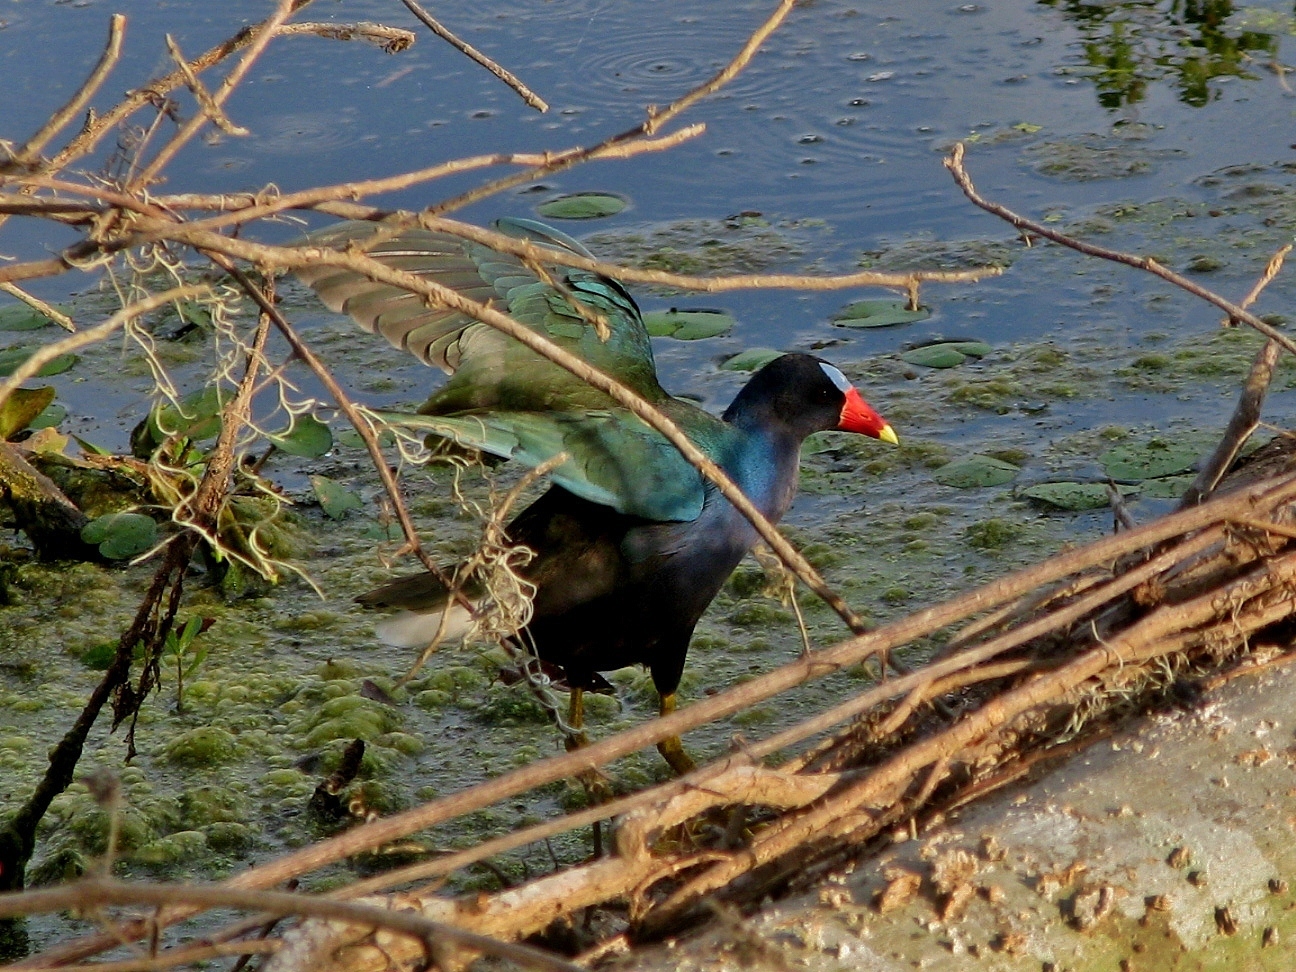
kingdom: Animalia
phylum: Chordata
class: Aves
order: Gruiformes
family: Rallidae
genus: Porphyrio
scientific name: Porphyrio martinica
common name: Purple gallinule
